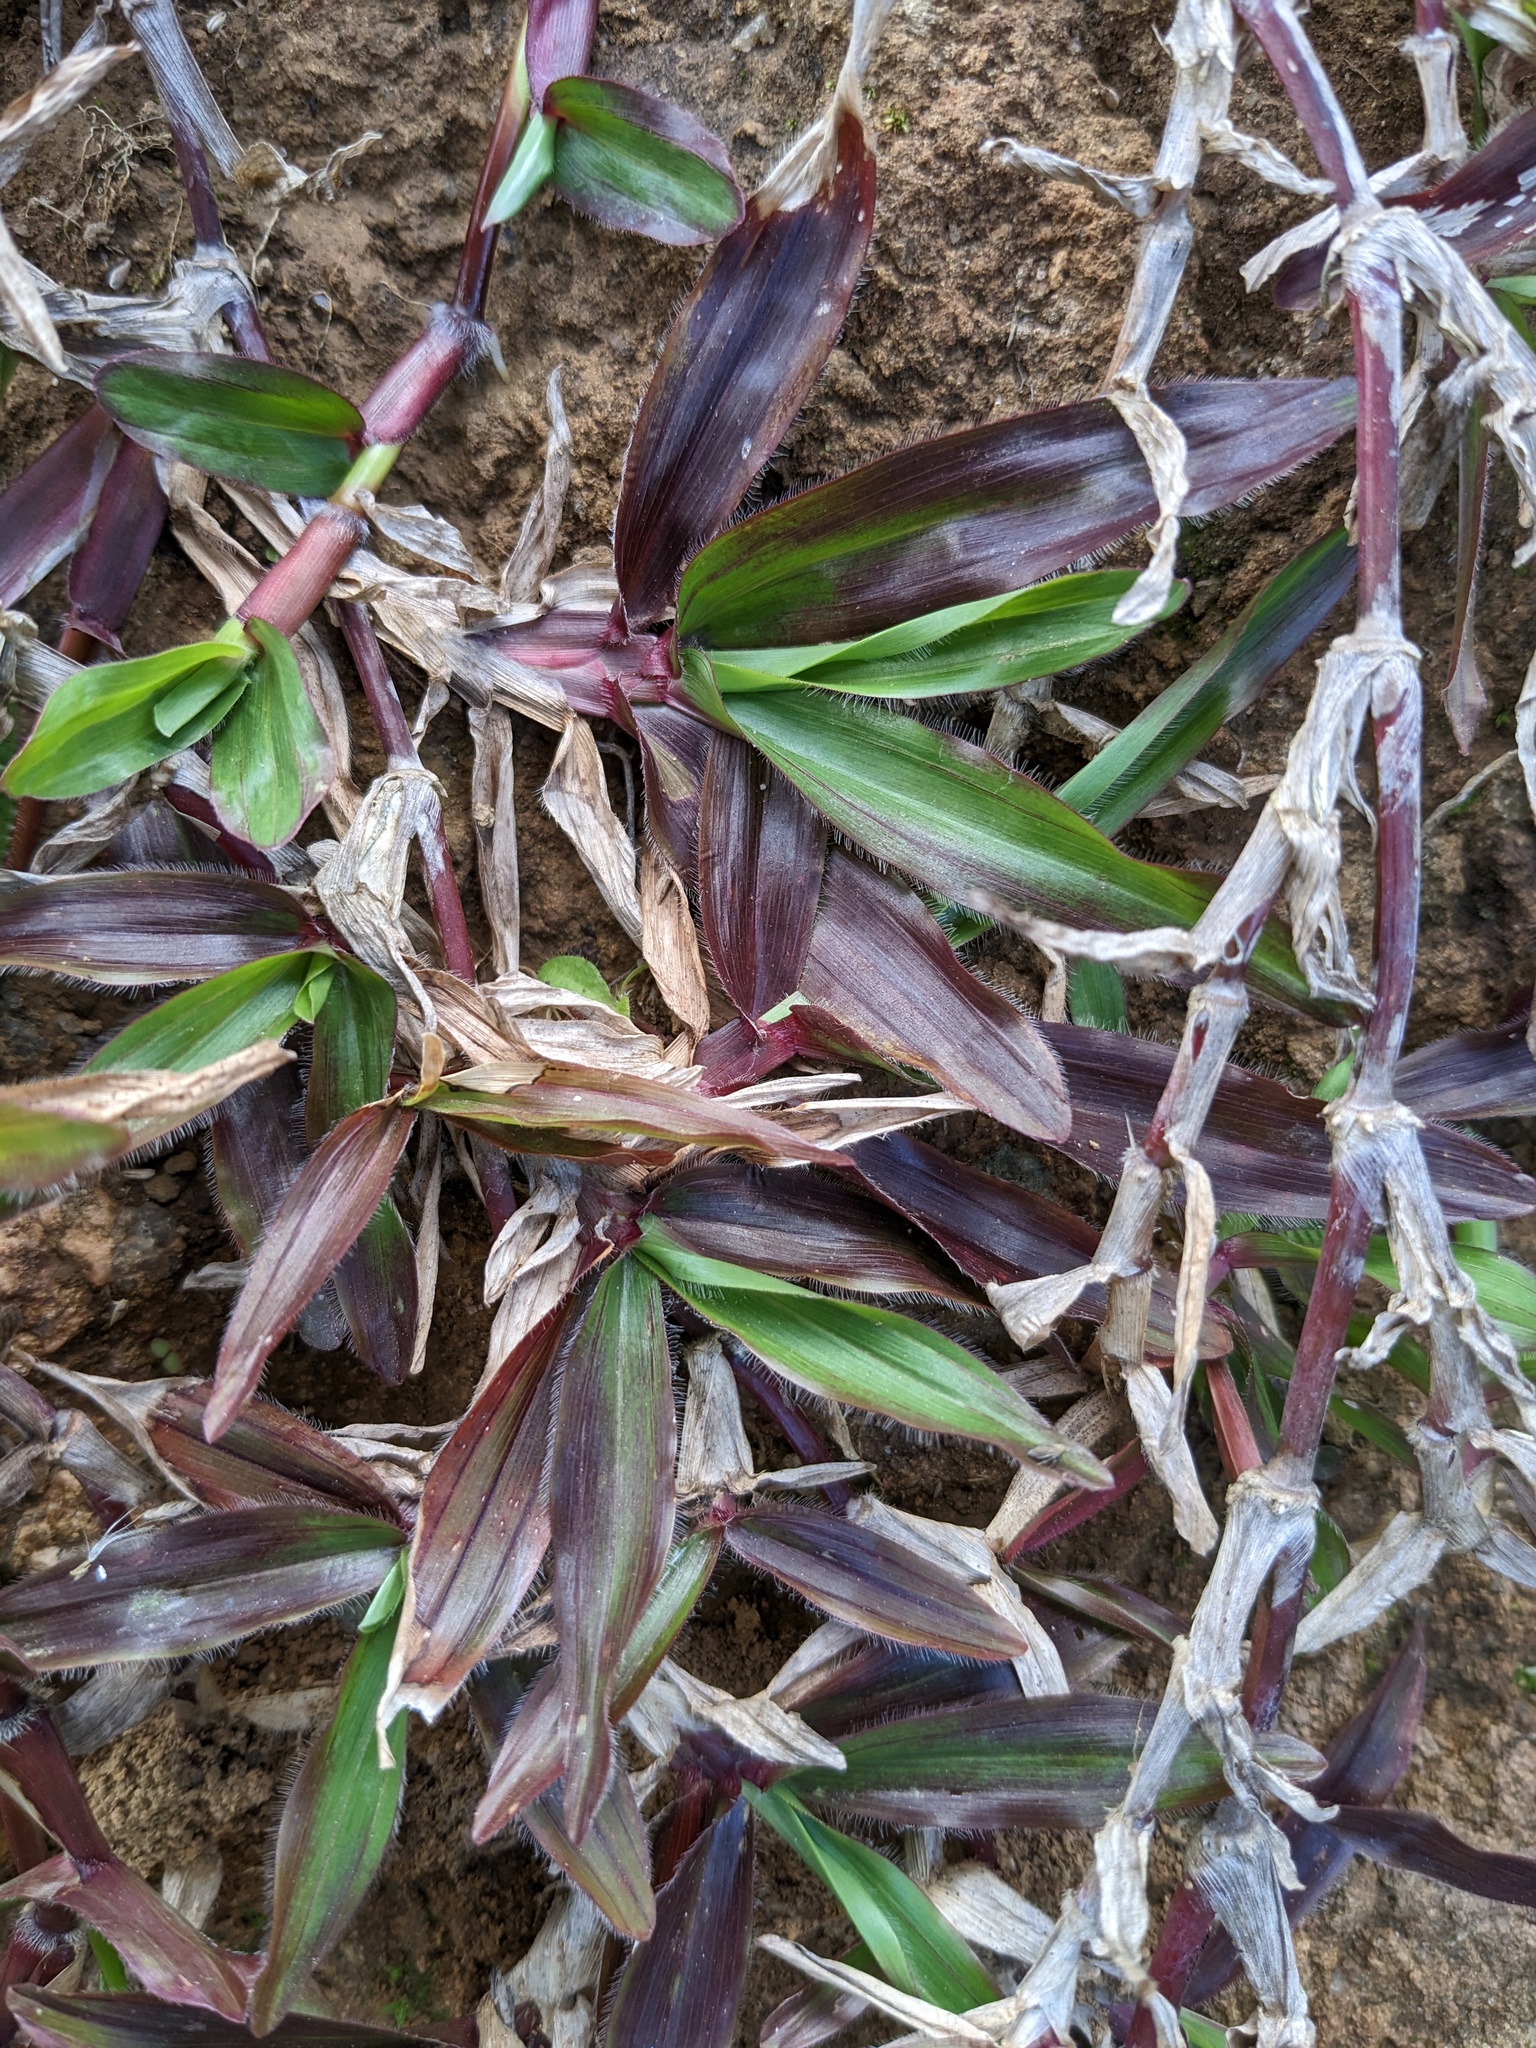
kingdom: Plantae
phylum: Tracheophyta
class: Liliopsida
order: Poales
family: Poaceae
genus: Axonopus
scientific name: Axonopus compressus
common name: American carpet grass
